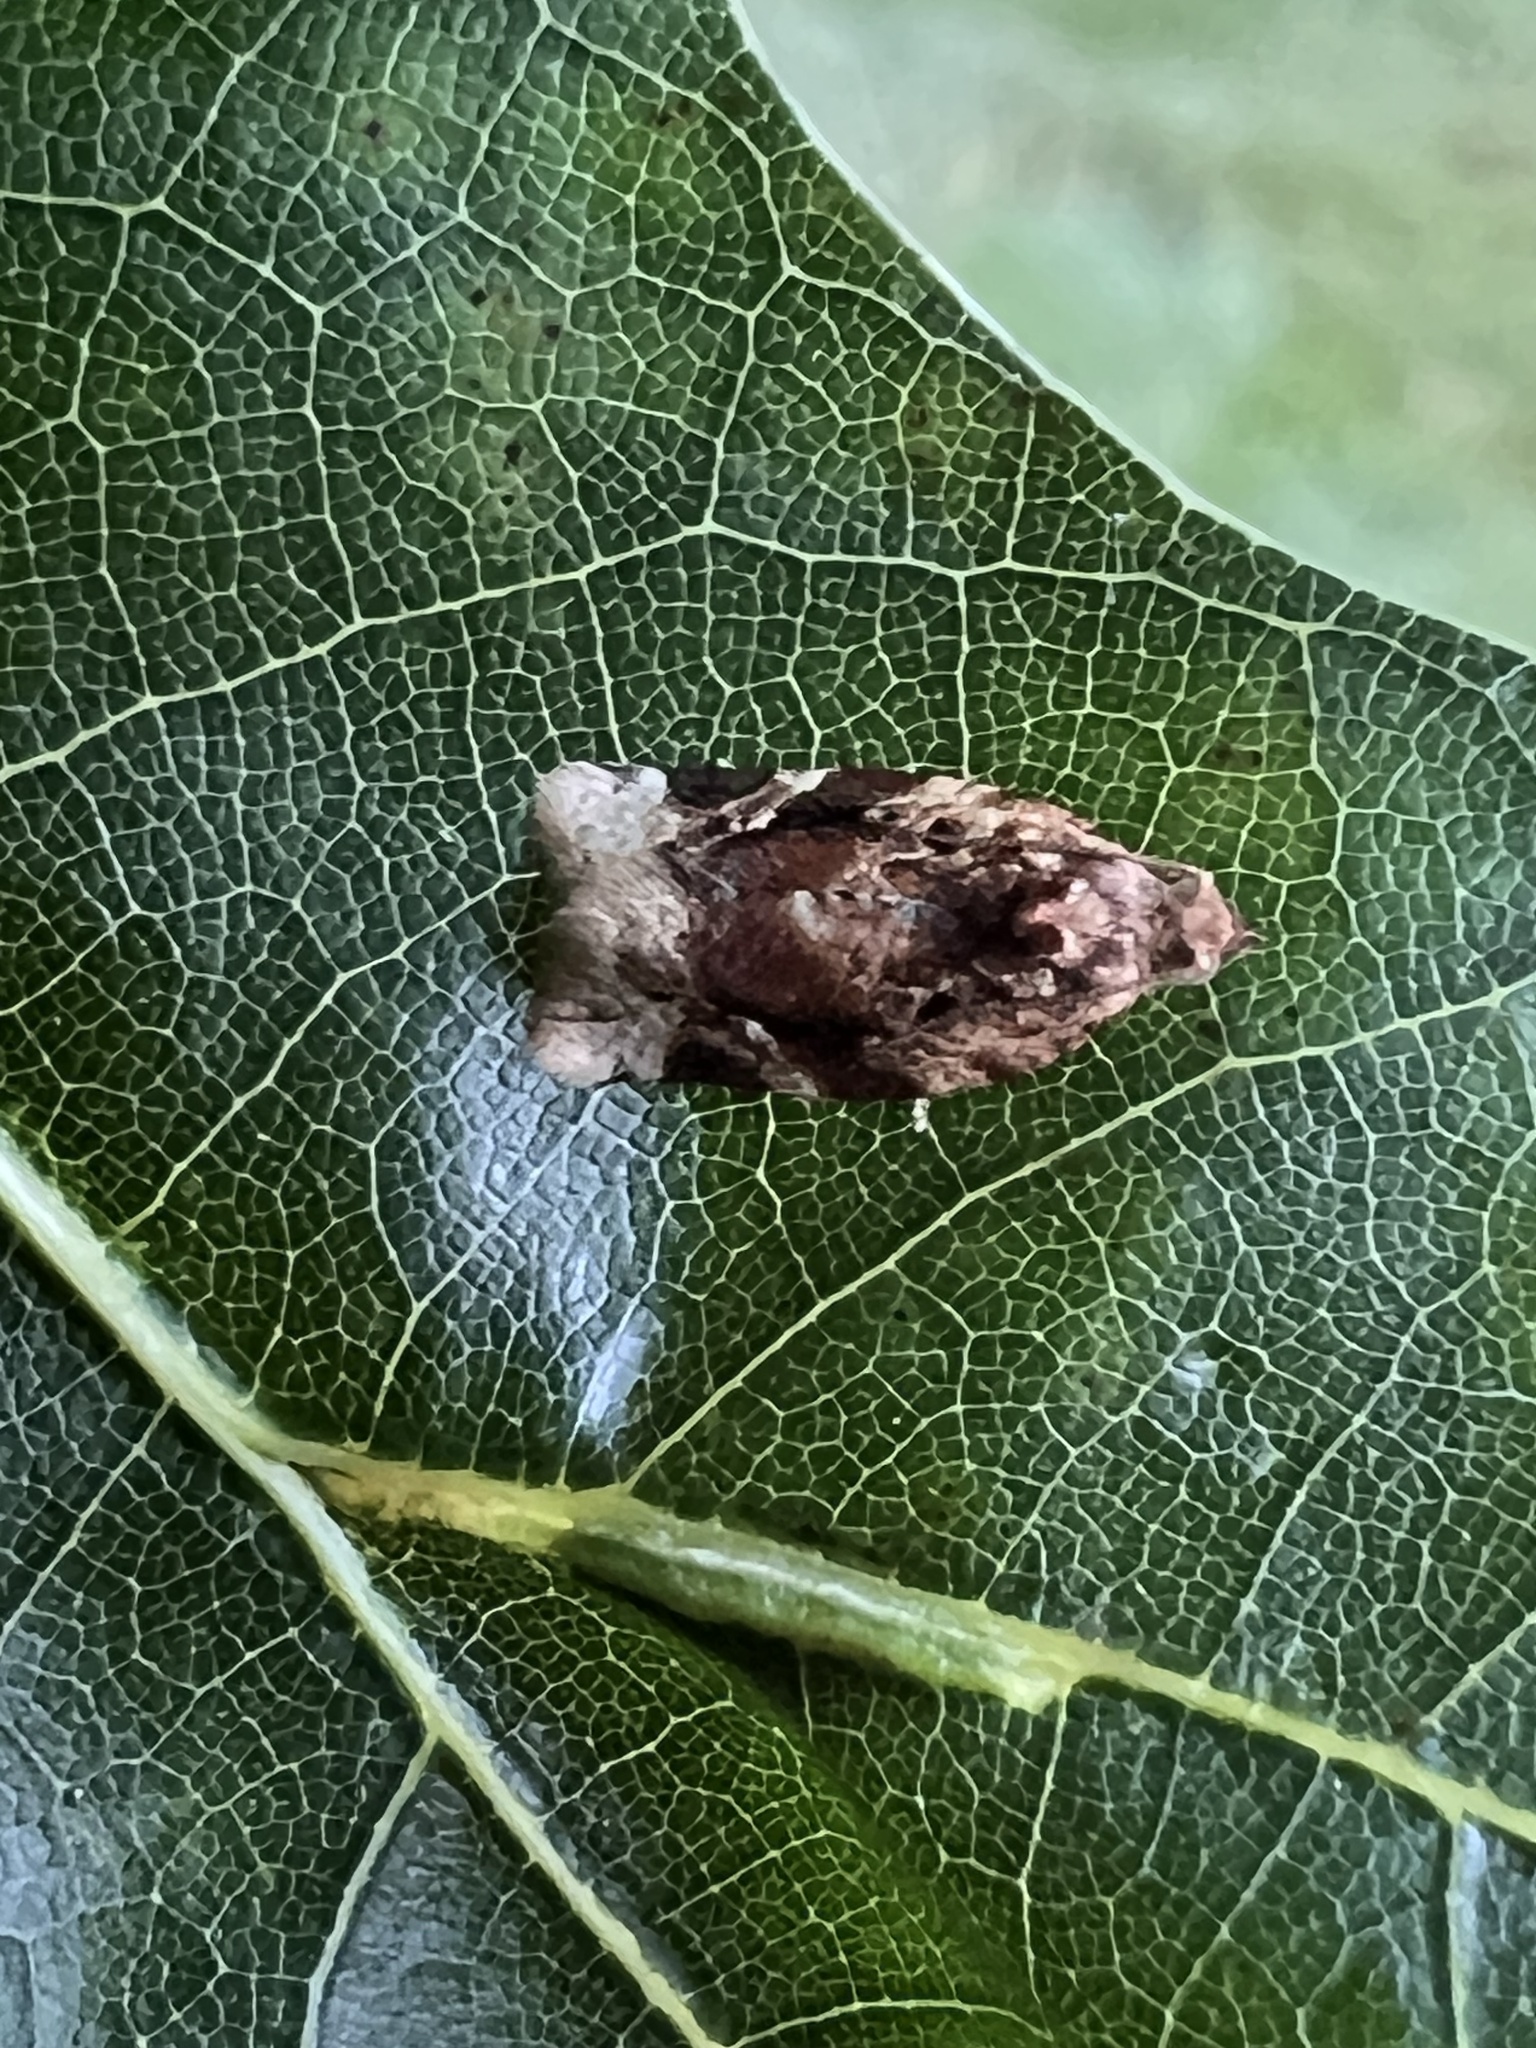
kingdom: Animalia
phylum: Arthropoda
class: Insecta
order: Lepidoptera
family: Tortricidae
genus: Argyrotaenia
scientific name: Argyrotaenia velutinana
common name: Red-banded leafroller moth
